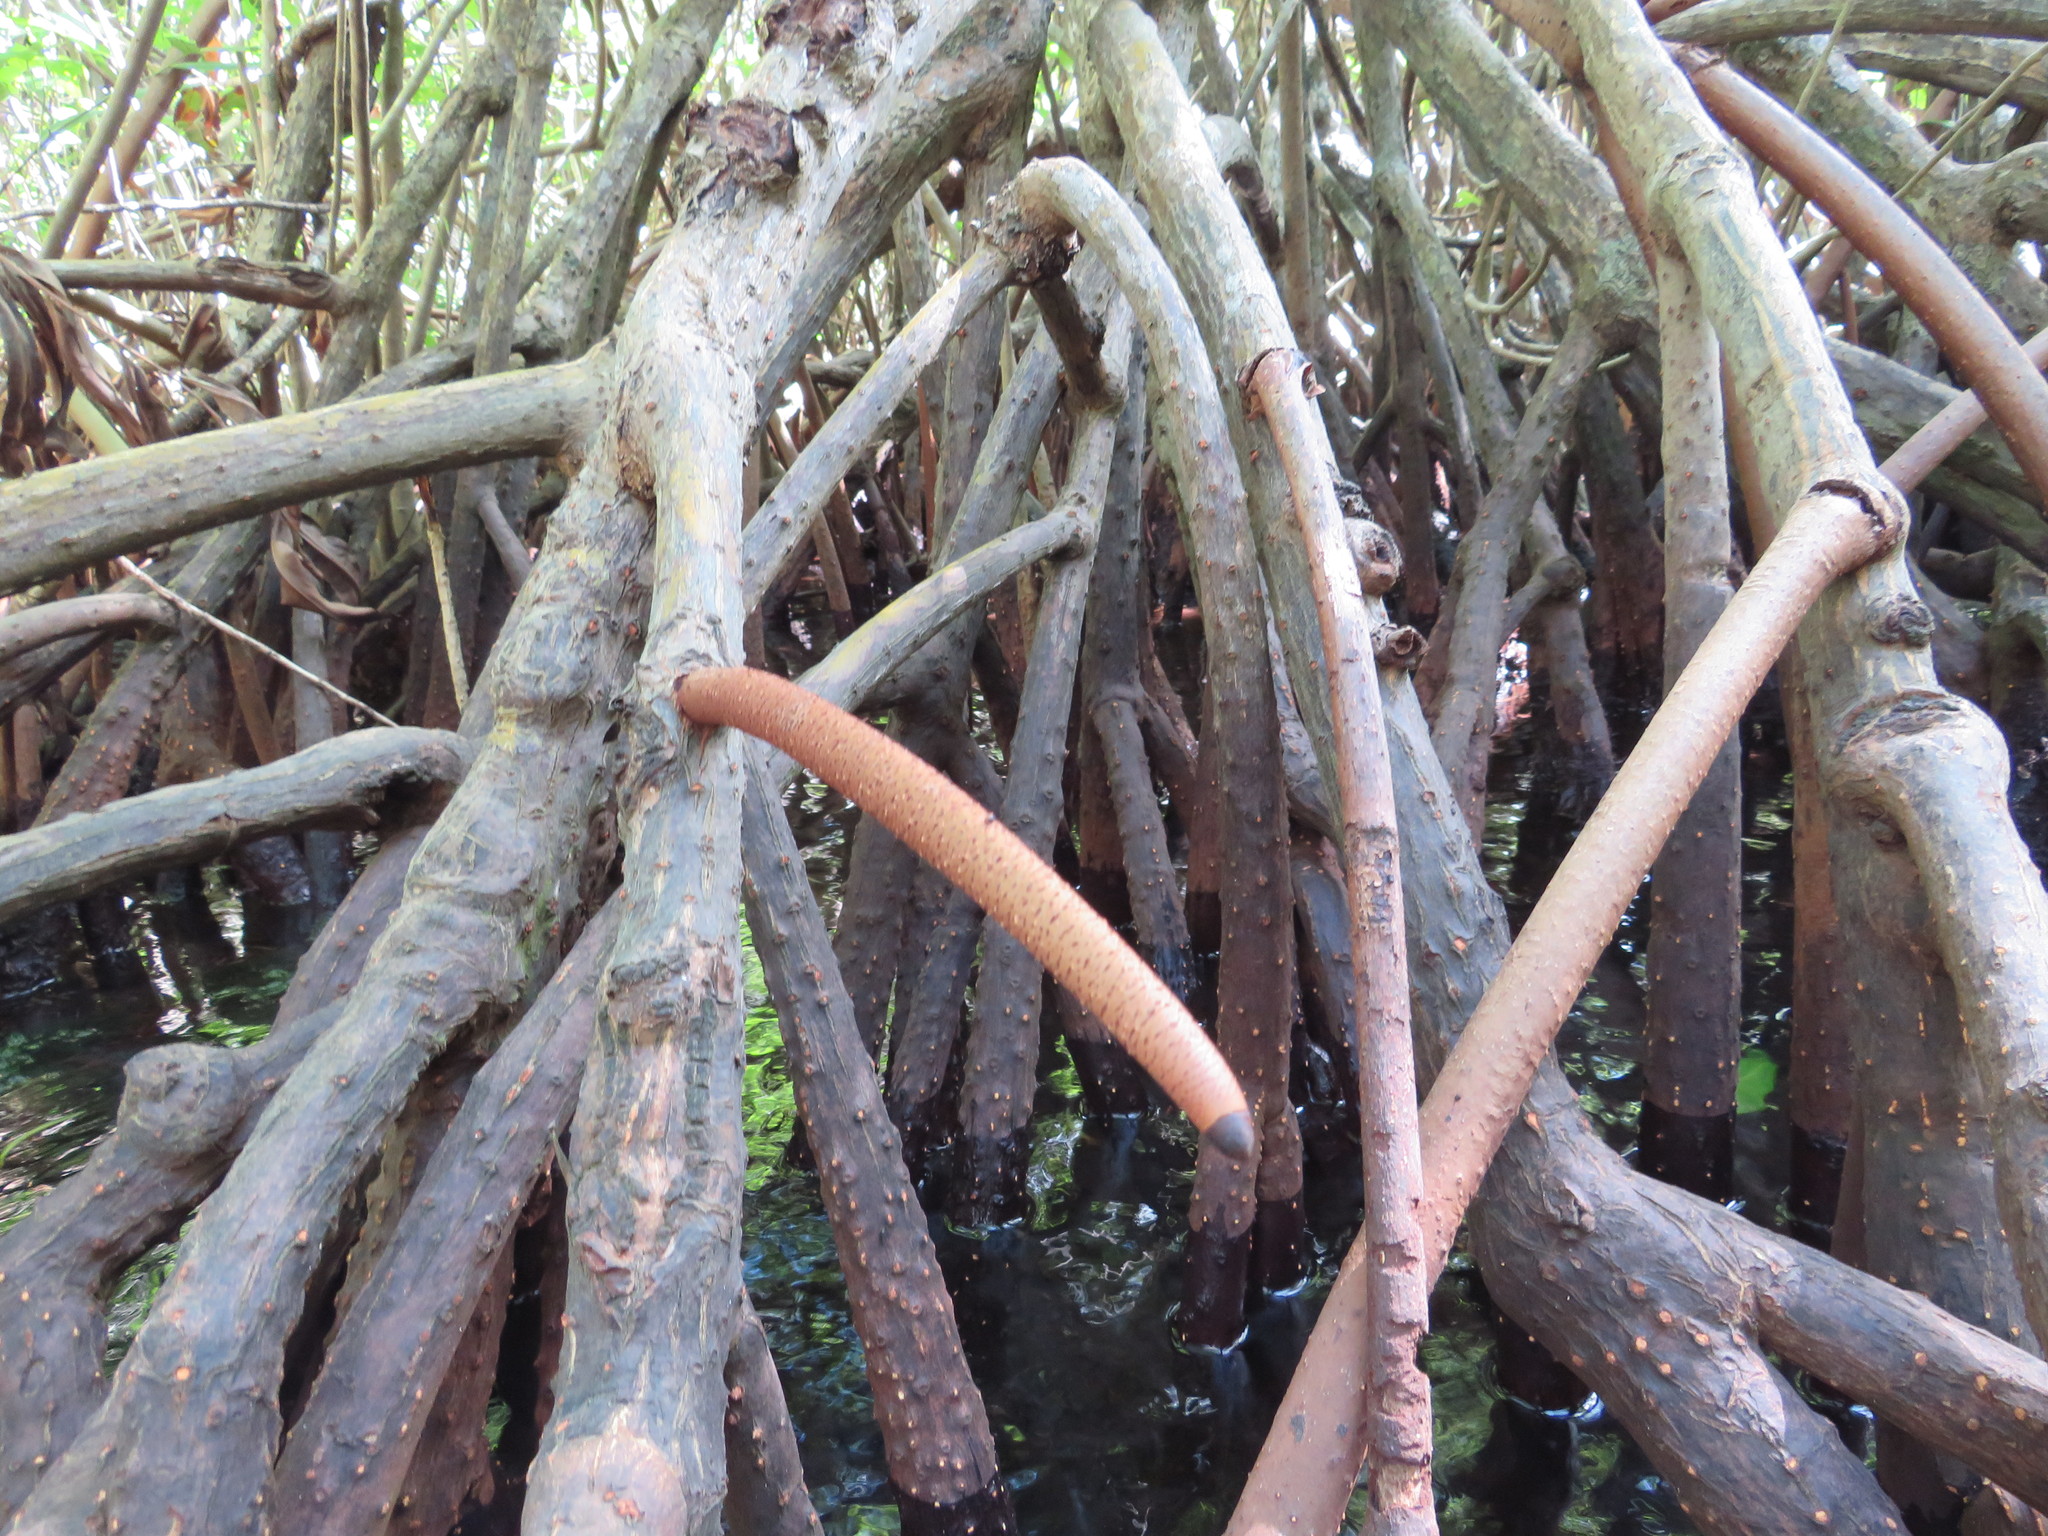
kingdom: Plantae
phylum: Tracheophyta
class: Magnoliopsida
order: Malpighiales
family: Rhizophoraceae
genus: Rhizophora
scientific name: Rhizophora mangle
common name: Red mangrove
